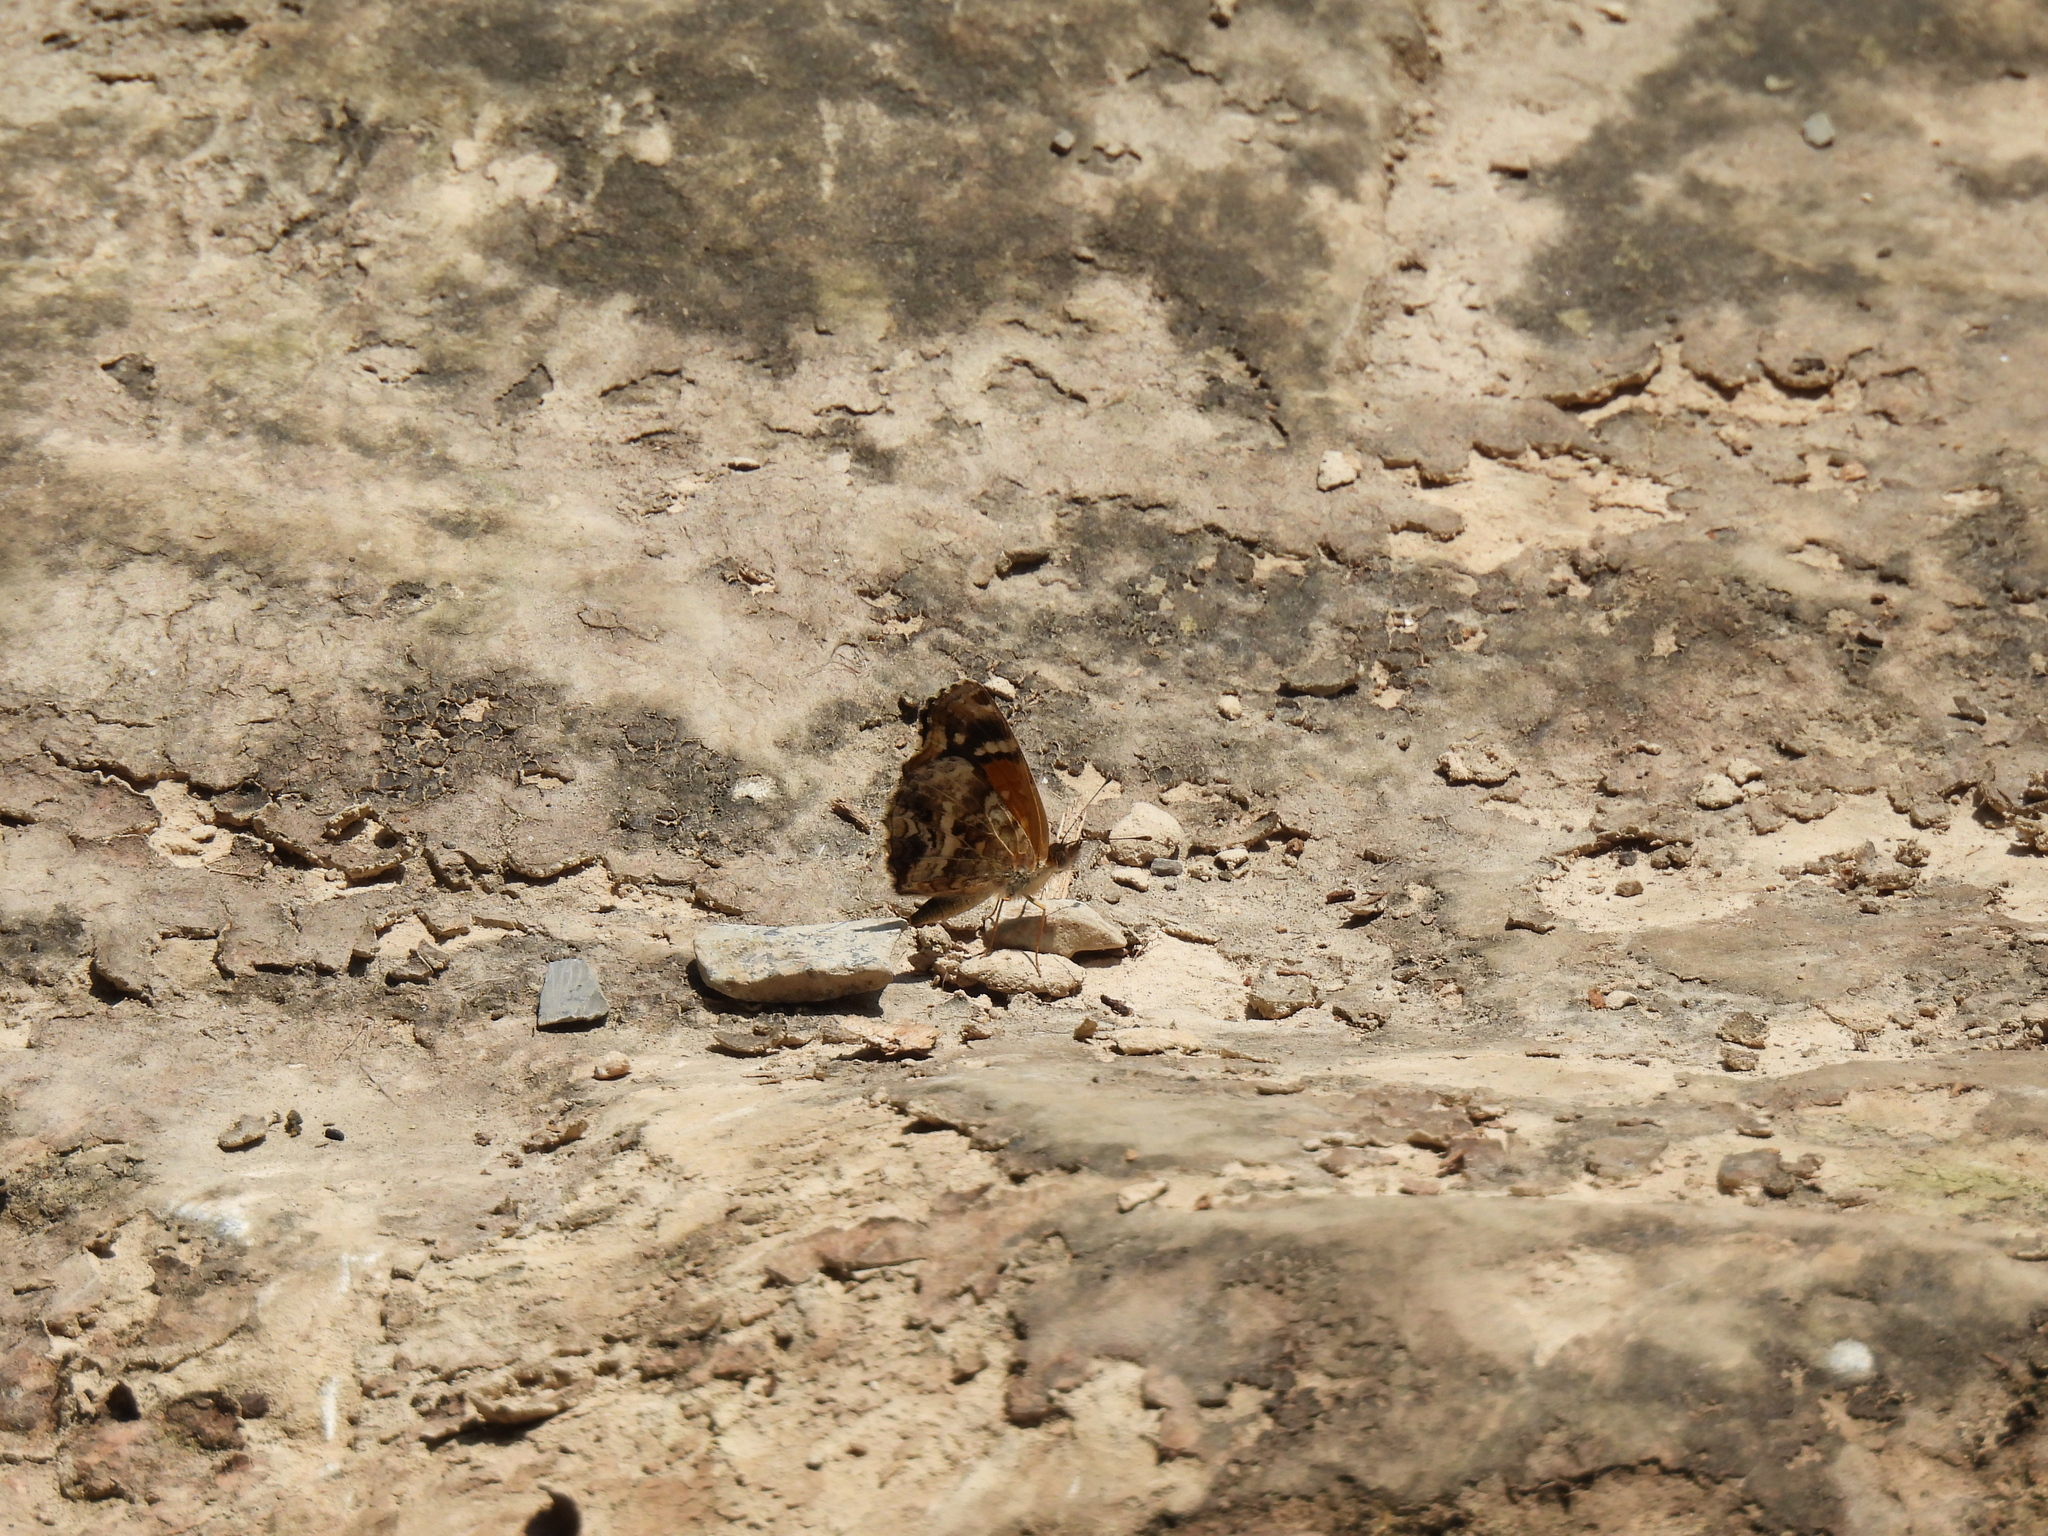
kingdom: Animalia
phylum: Arthropoda
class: Insecta
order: Lepidoptera
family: Nymphalidae
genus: Anthanassa
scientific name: Anthanassa texana
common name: Texan crescent
